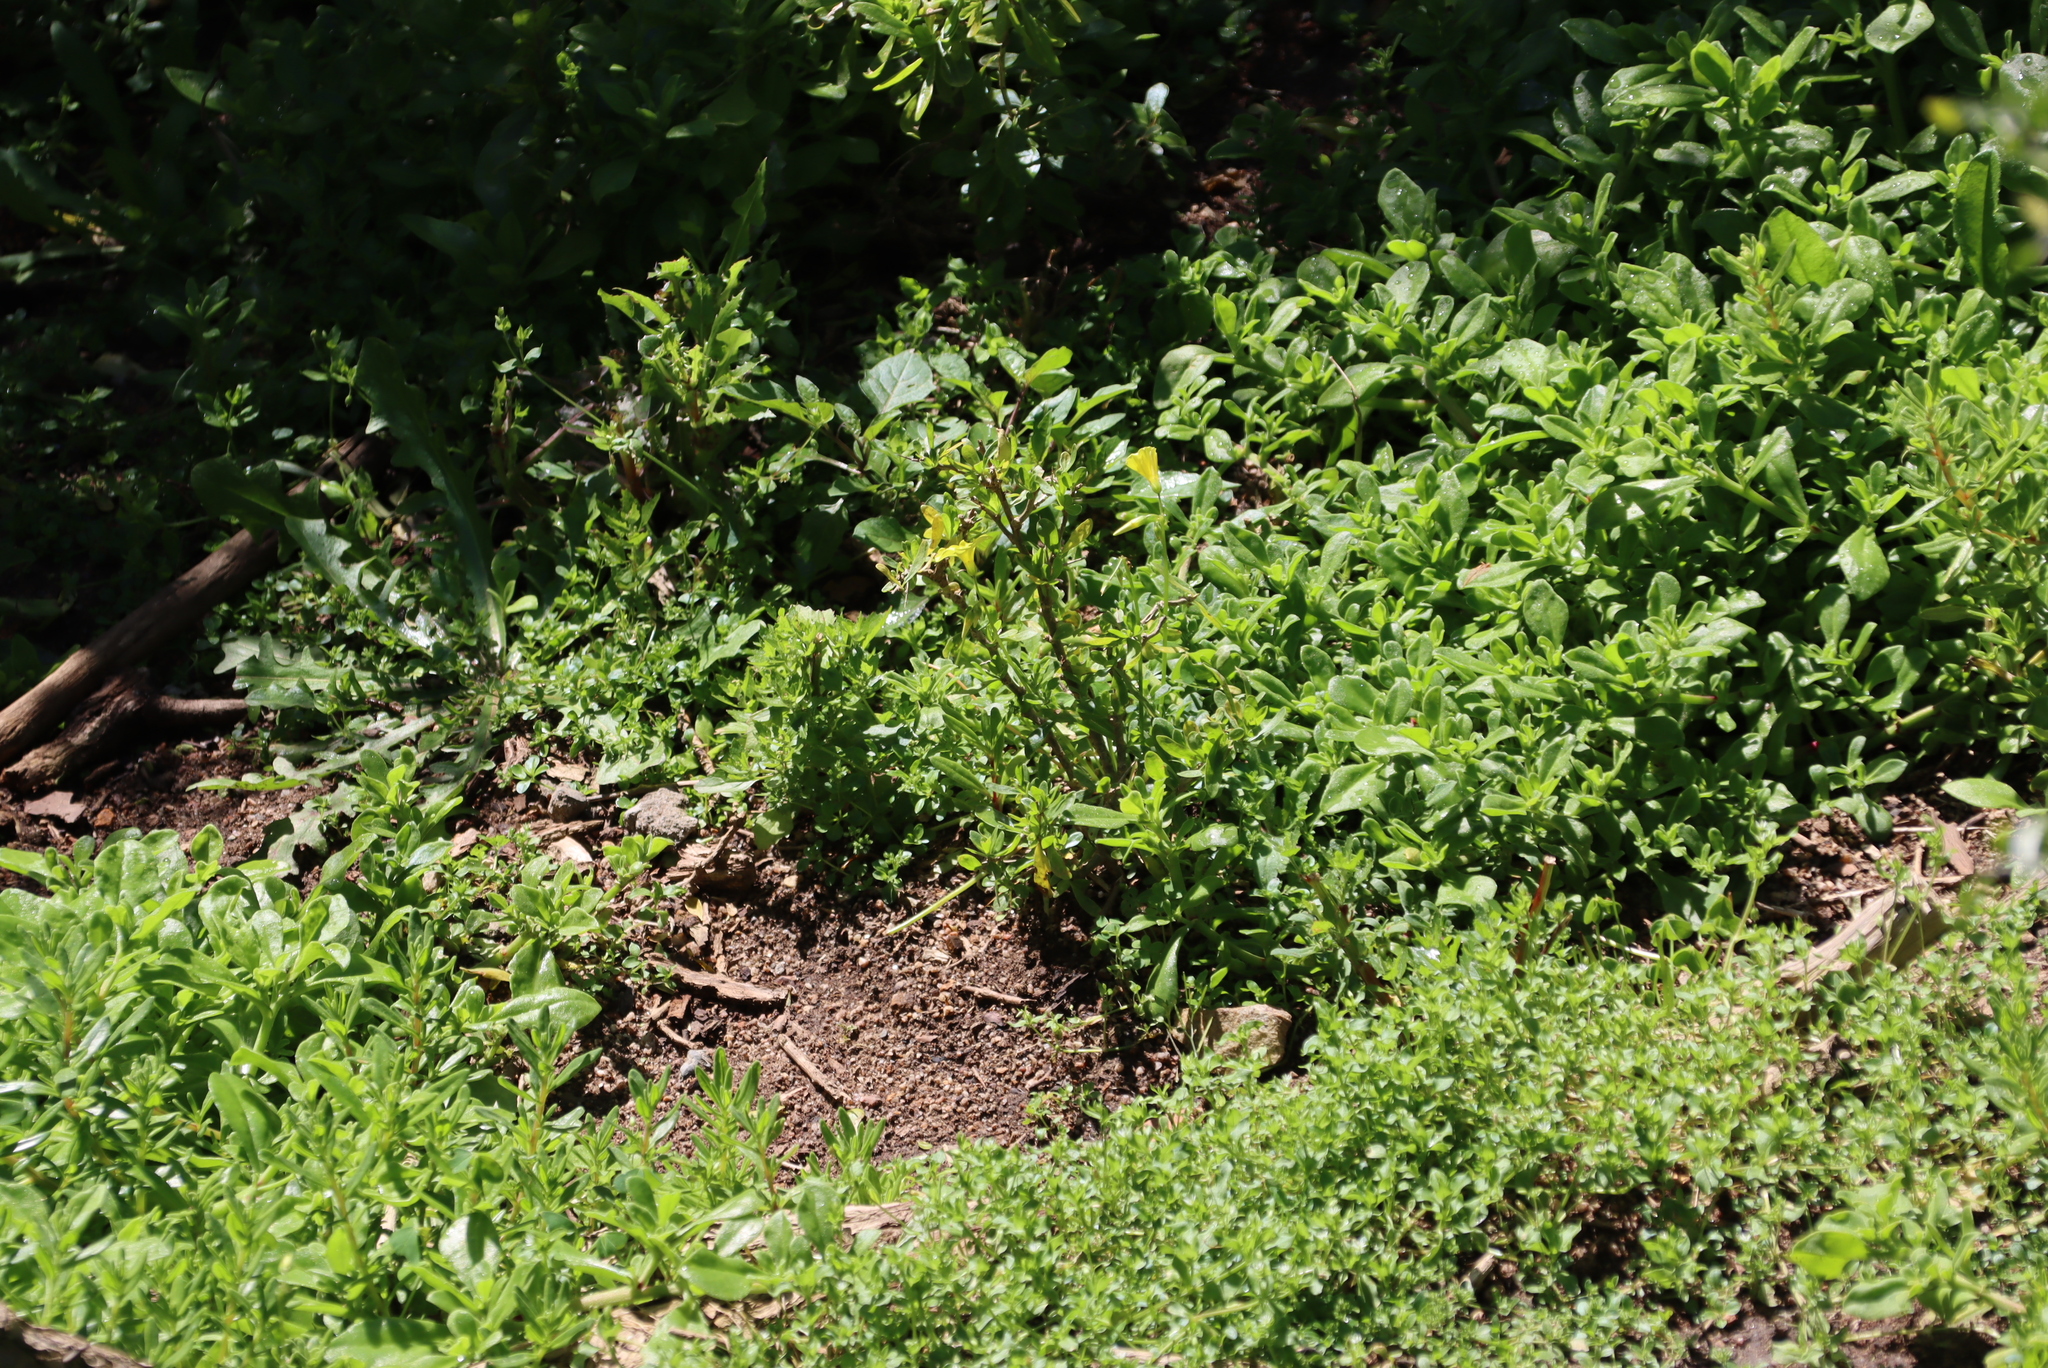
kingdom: Plantae
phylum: Tracheophyta
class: Magnoliopsida
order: Solanales
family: Solanaceae
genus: Solanum
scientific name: Solanum nigrum
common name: Black nightshade
